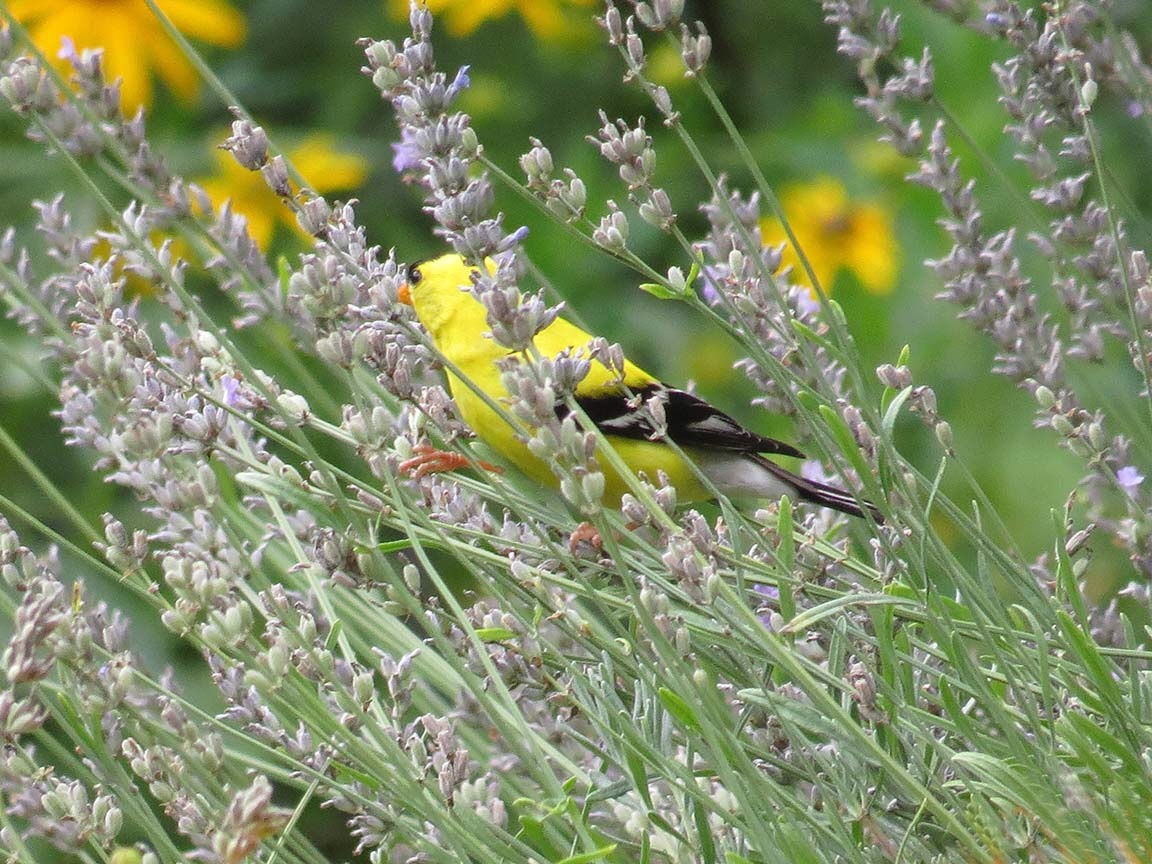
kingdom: Animalia
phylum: Chordata
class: Aves
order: Passeriformes
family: Fringillidae
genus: Spinus
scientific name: Spinus tristis
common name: American goldfinch
